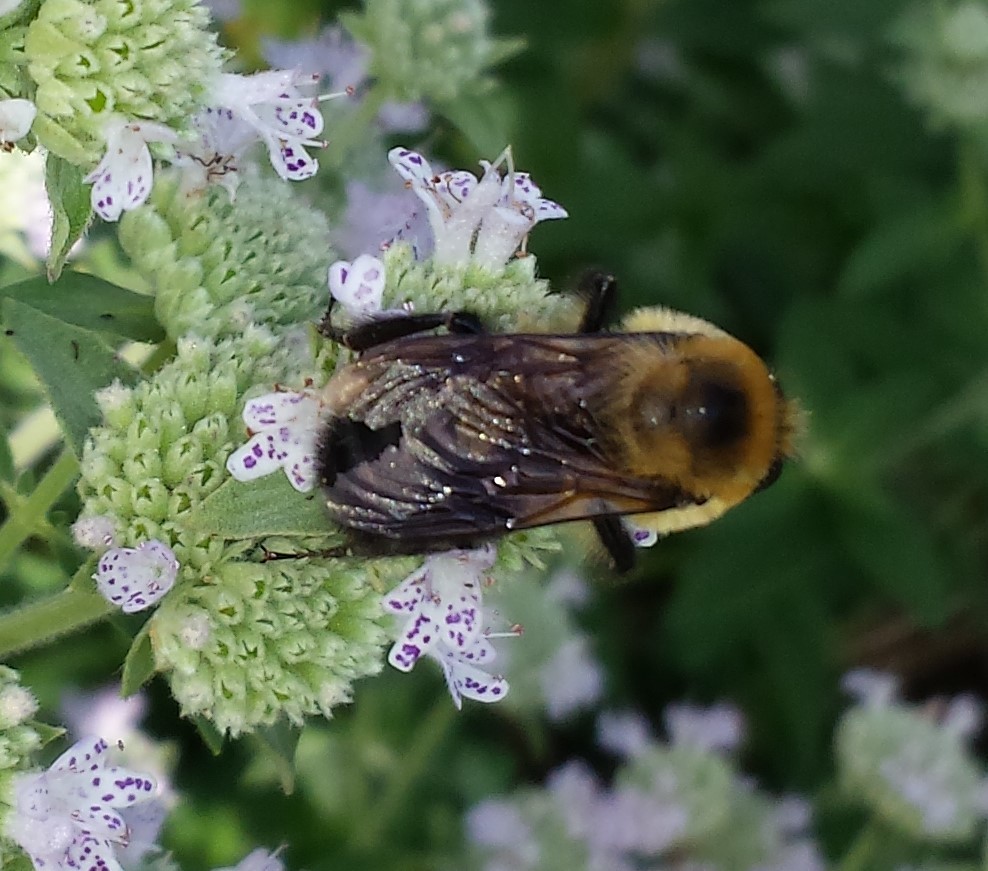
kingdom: Animalia
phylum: Arthropoda
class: Insecta
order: Hymenoptera
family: Apidae
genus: Bombus
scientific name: Bombus griseocollis
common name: Brown-belted bumble bee
